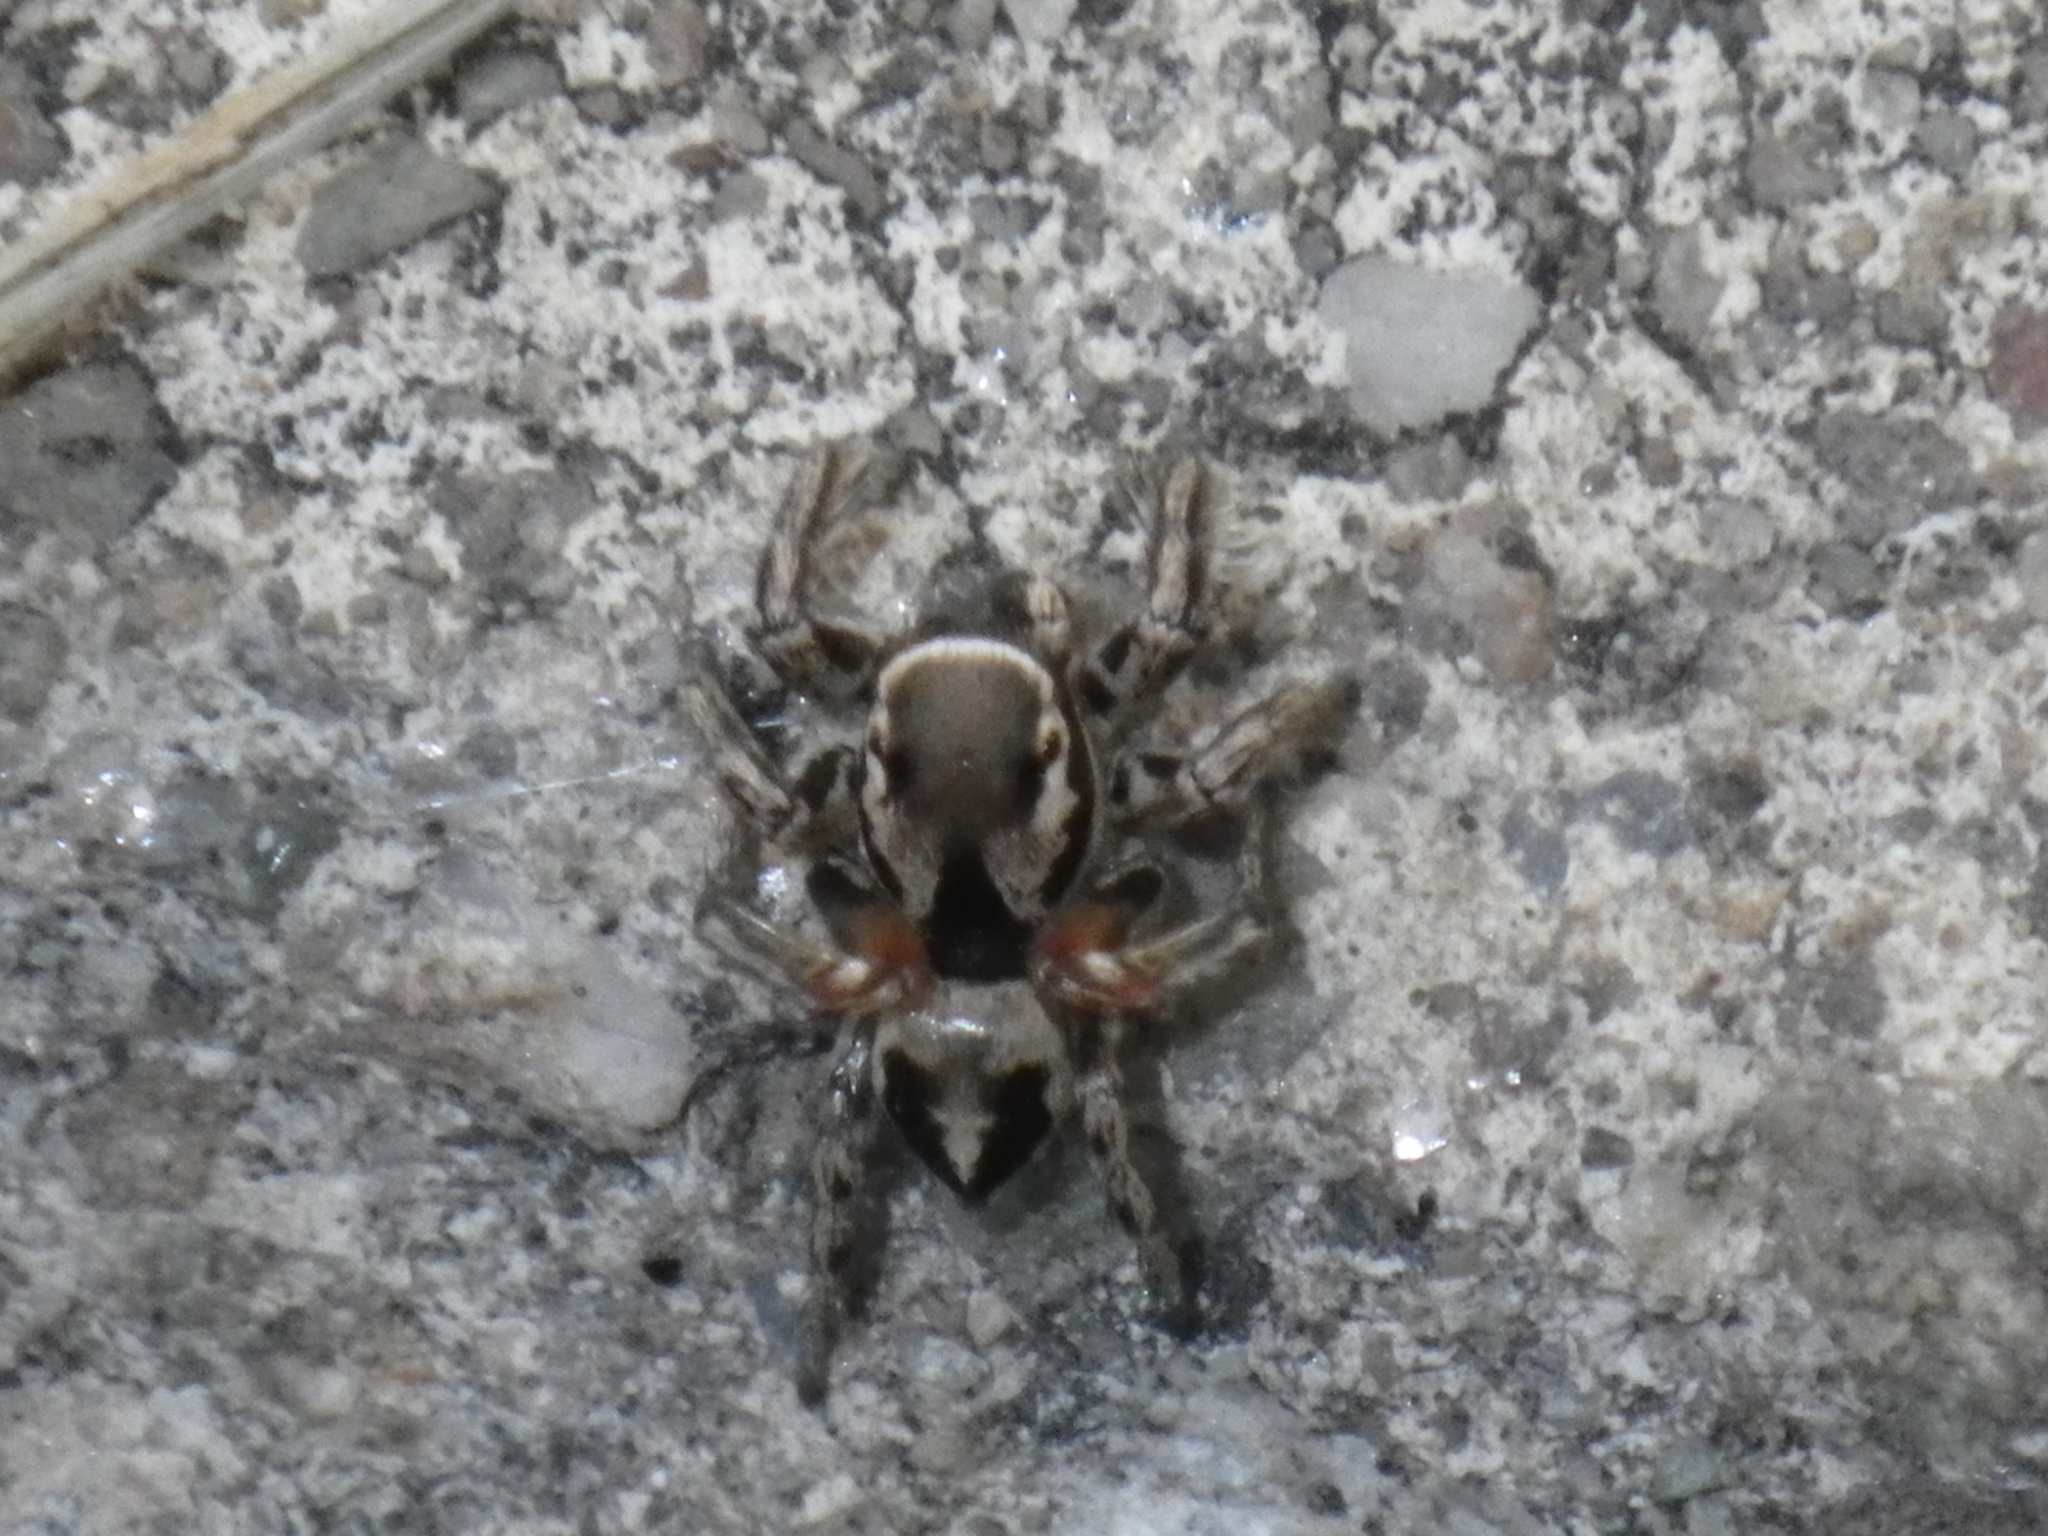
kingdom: Animalia
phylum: Arthropoda
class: Arachnida
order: Araneae
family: Salticidae
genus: Habronattus
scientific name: Habronattus formosus
